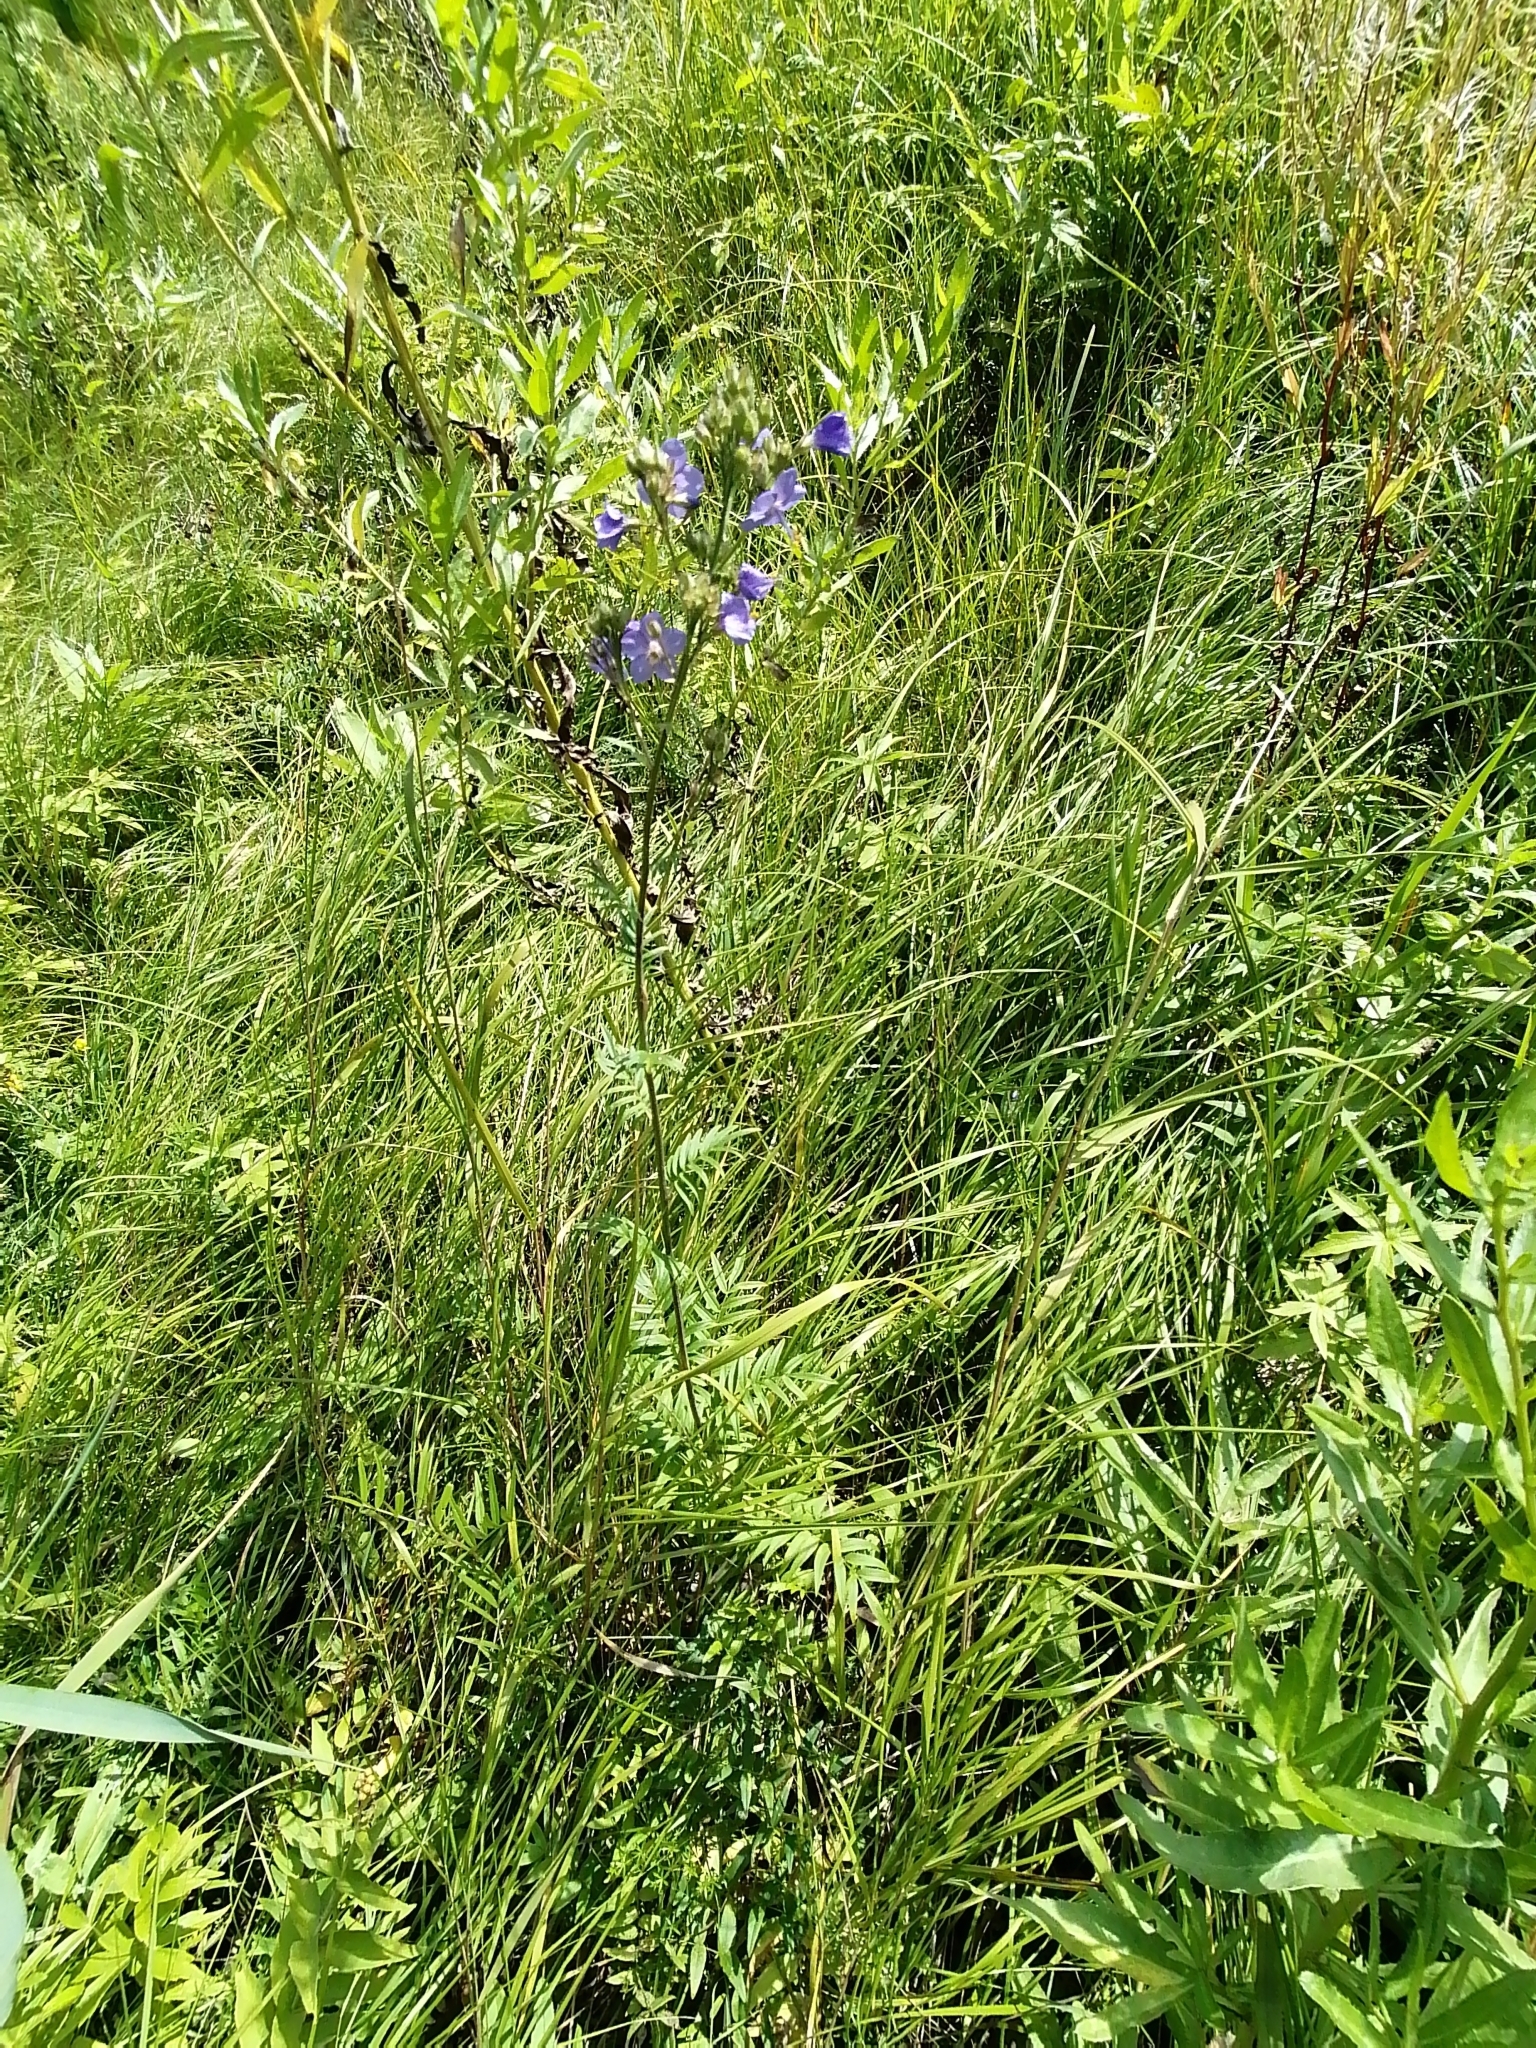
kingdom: Plantae
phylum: Tracheophyta
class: Magnoliopsida
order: Ericales
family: Polemoniaceae
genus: Polemonium
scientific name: Polemonium caeruleum
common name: Jacob's-ladder
